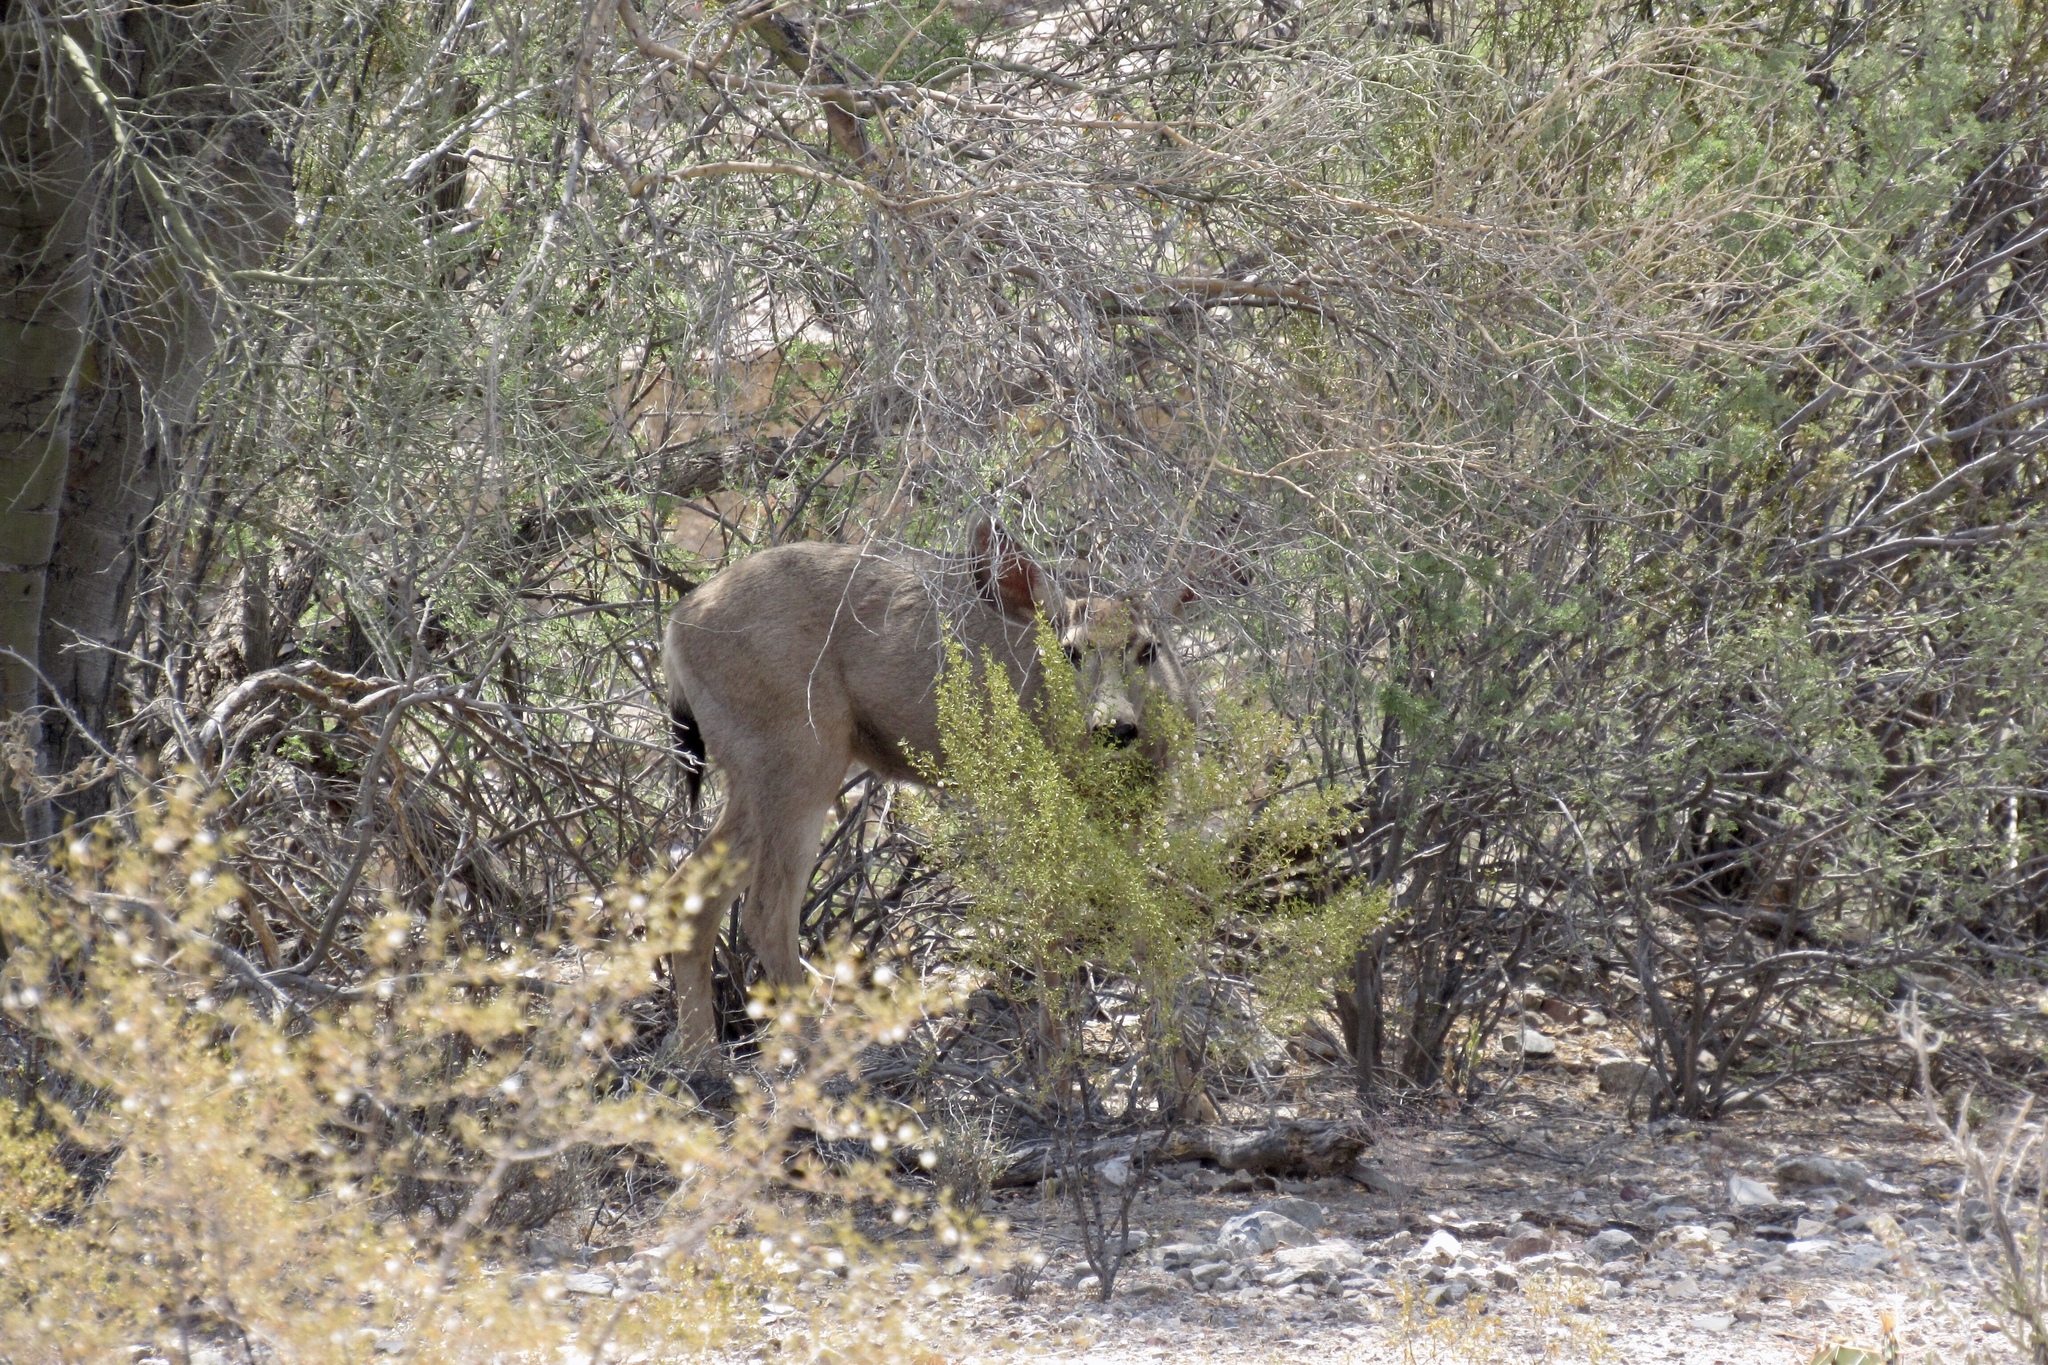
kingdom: Animalia
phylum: Chordata
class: Mammalia
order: Artiodactyla
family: Cervidae
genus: Odocoileus
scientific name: Odocoileus hemionus
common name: Mule deer
